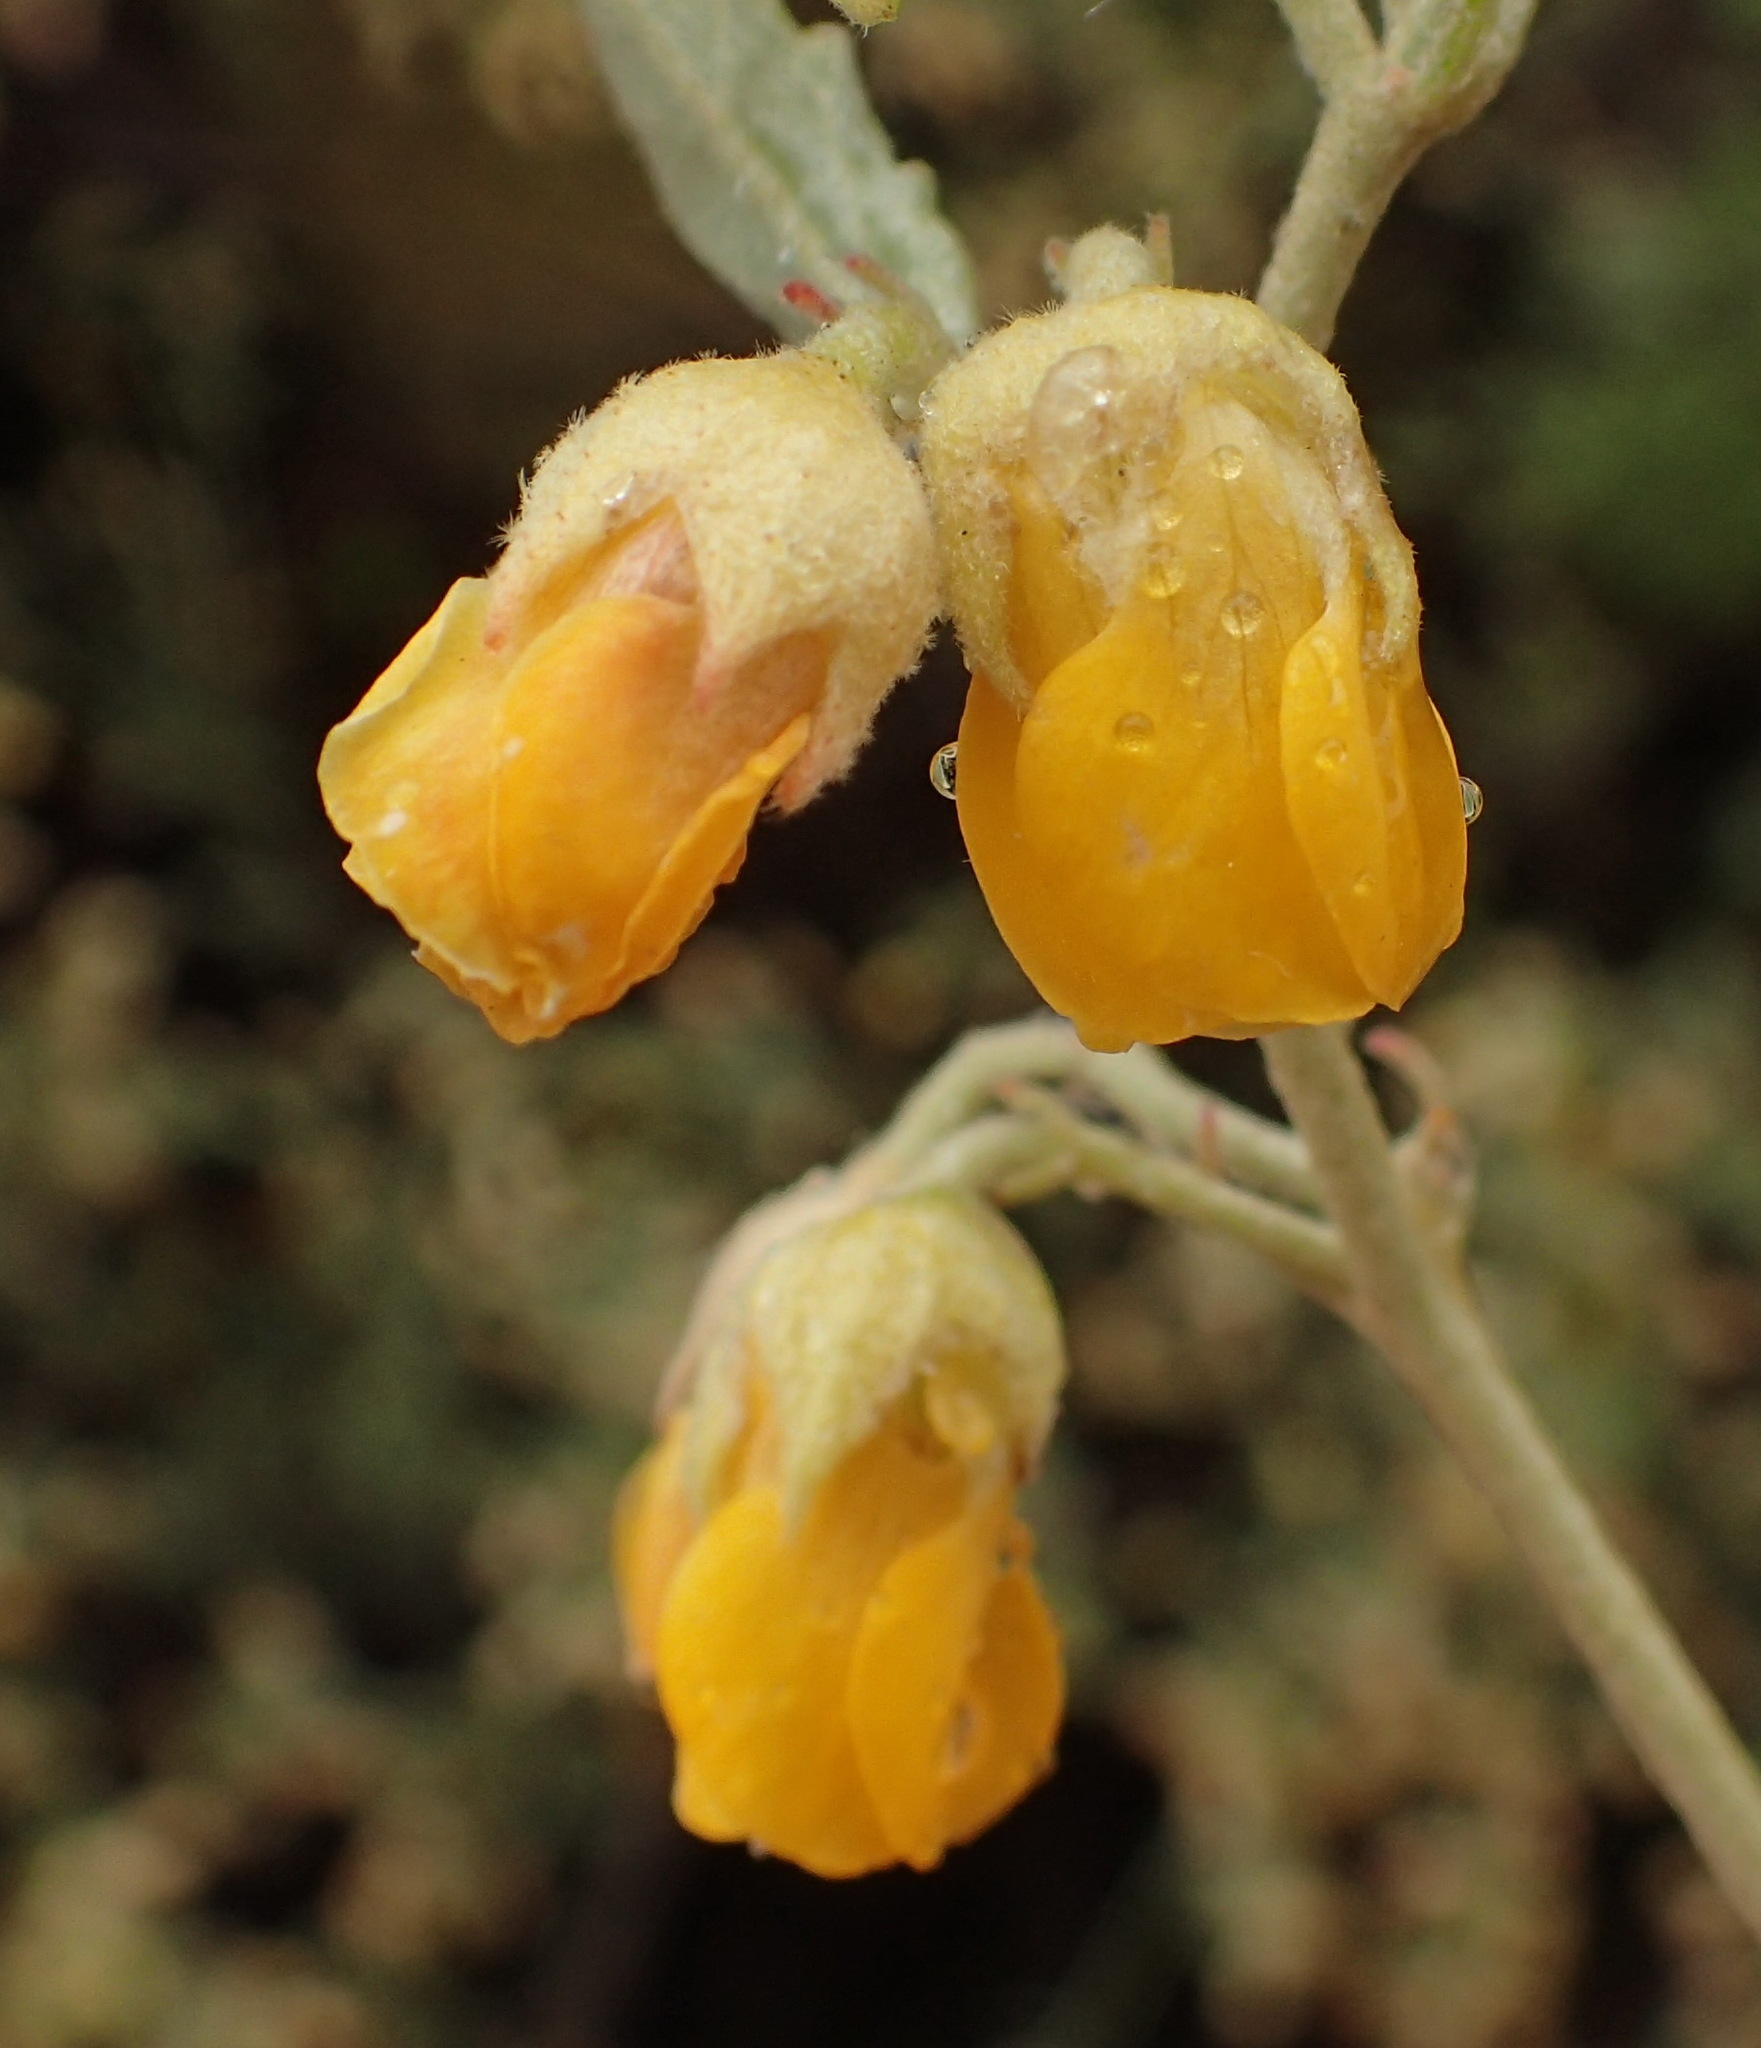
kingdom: Plantae
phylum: Tracheophyta
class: Magnoliopsida
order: Malvales
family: Malvaceae
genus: Hermannia
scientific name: Hermannia incana
